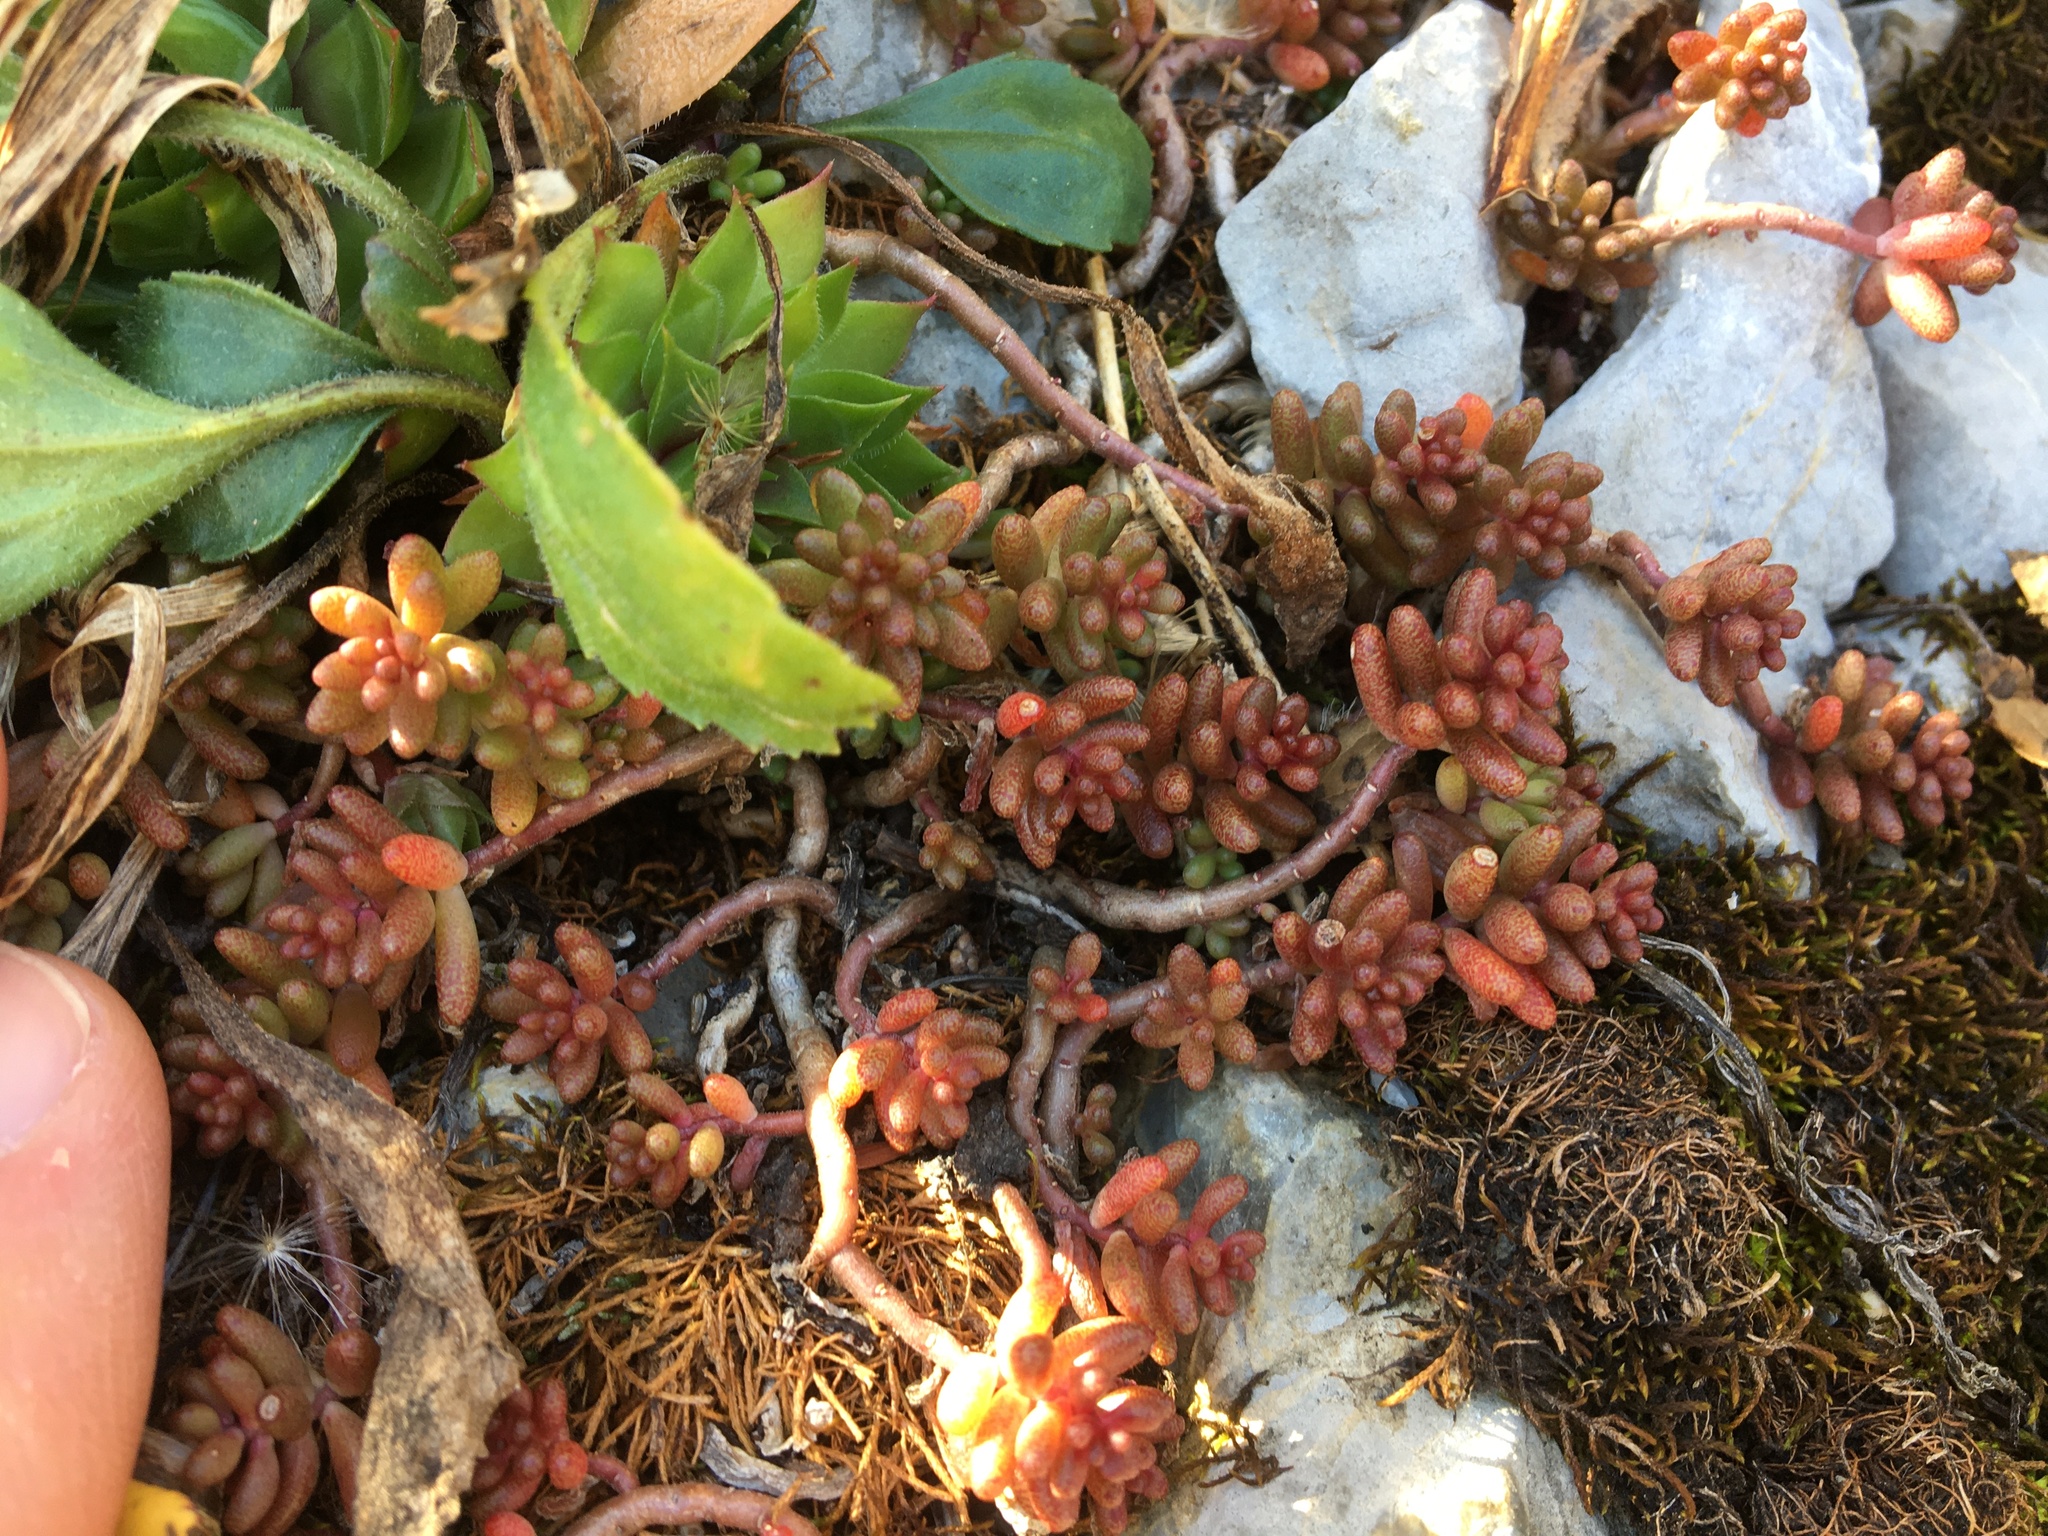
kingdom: Plantae
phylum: Tracheophyta
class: Magnoliopsida
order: Saxifragales
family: Crassulaceae
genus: Sedum
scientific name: Sedum album
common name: White stonecrop
